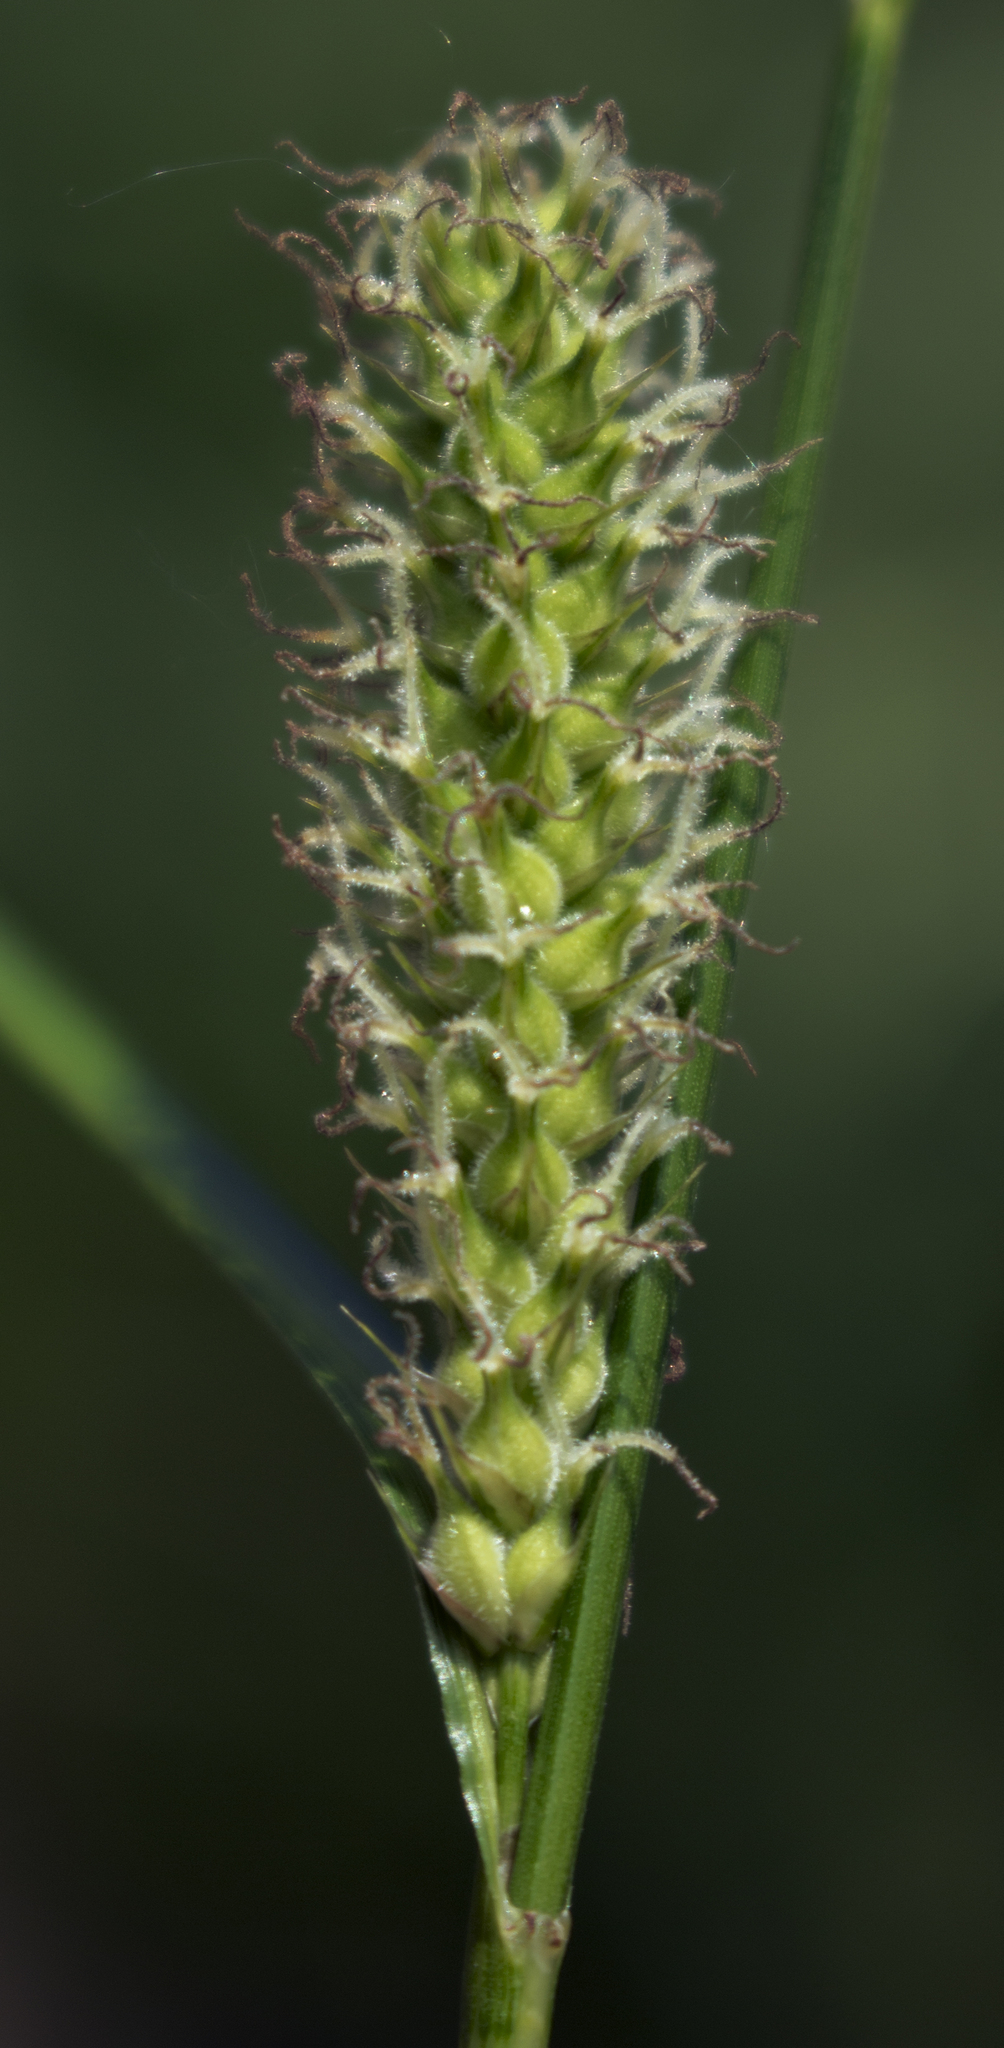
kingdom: Plantae
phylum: Tracheophyta
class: Liliopsida
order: Poales
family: Cyperaceae
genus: Carex
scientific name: Carex pellita
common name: Woolly sedge
